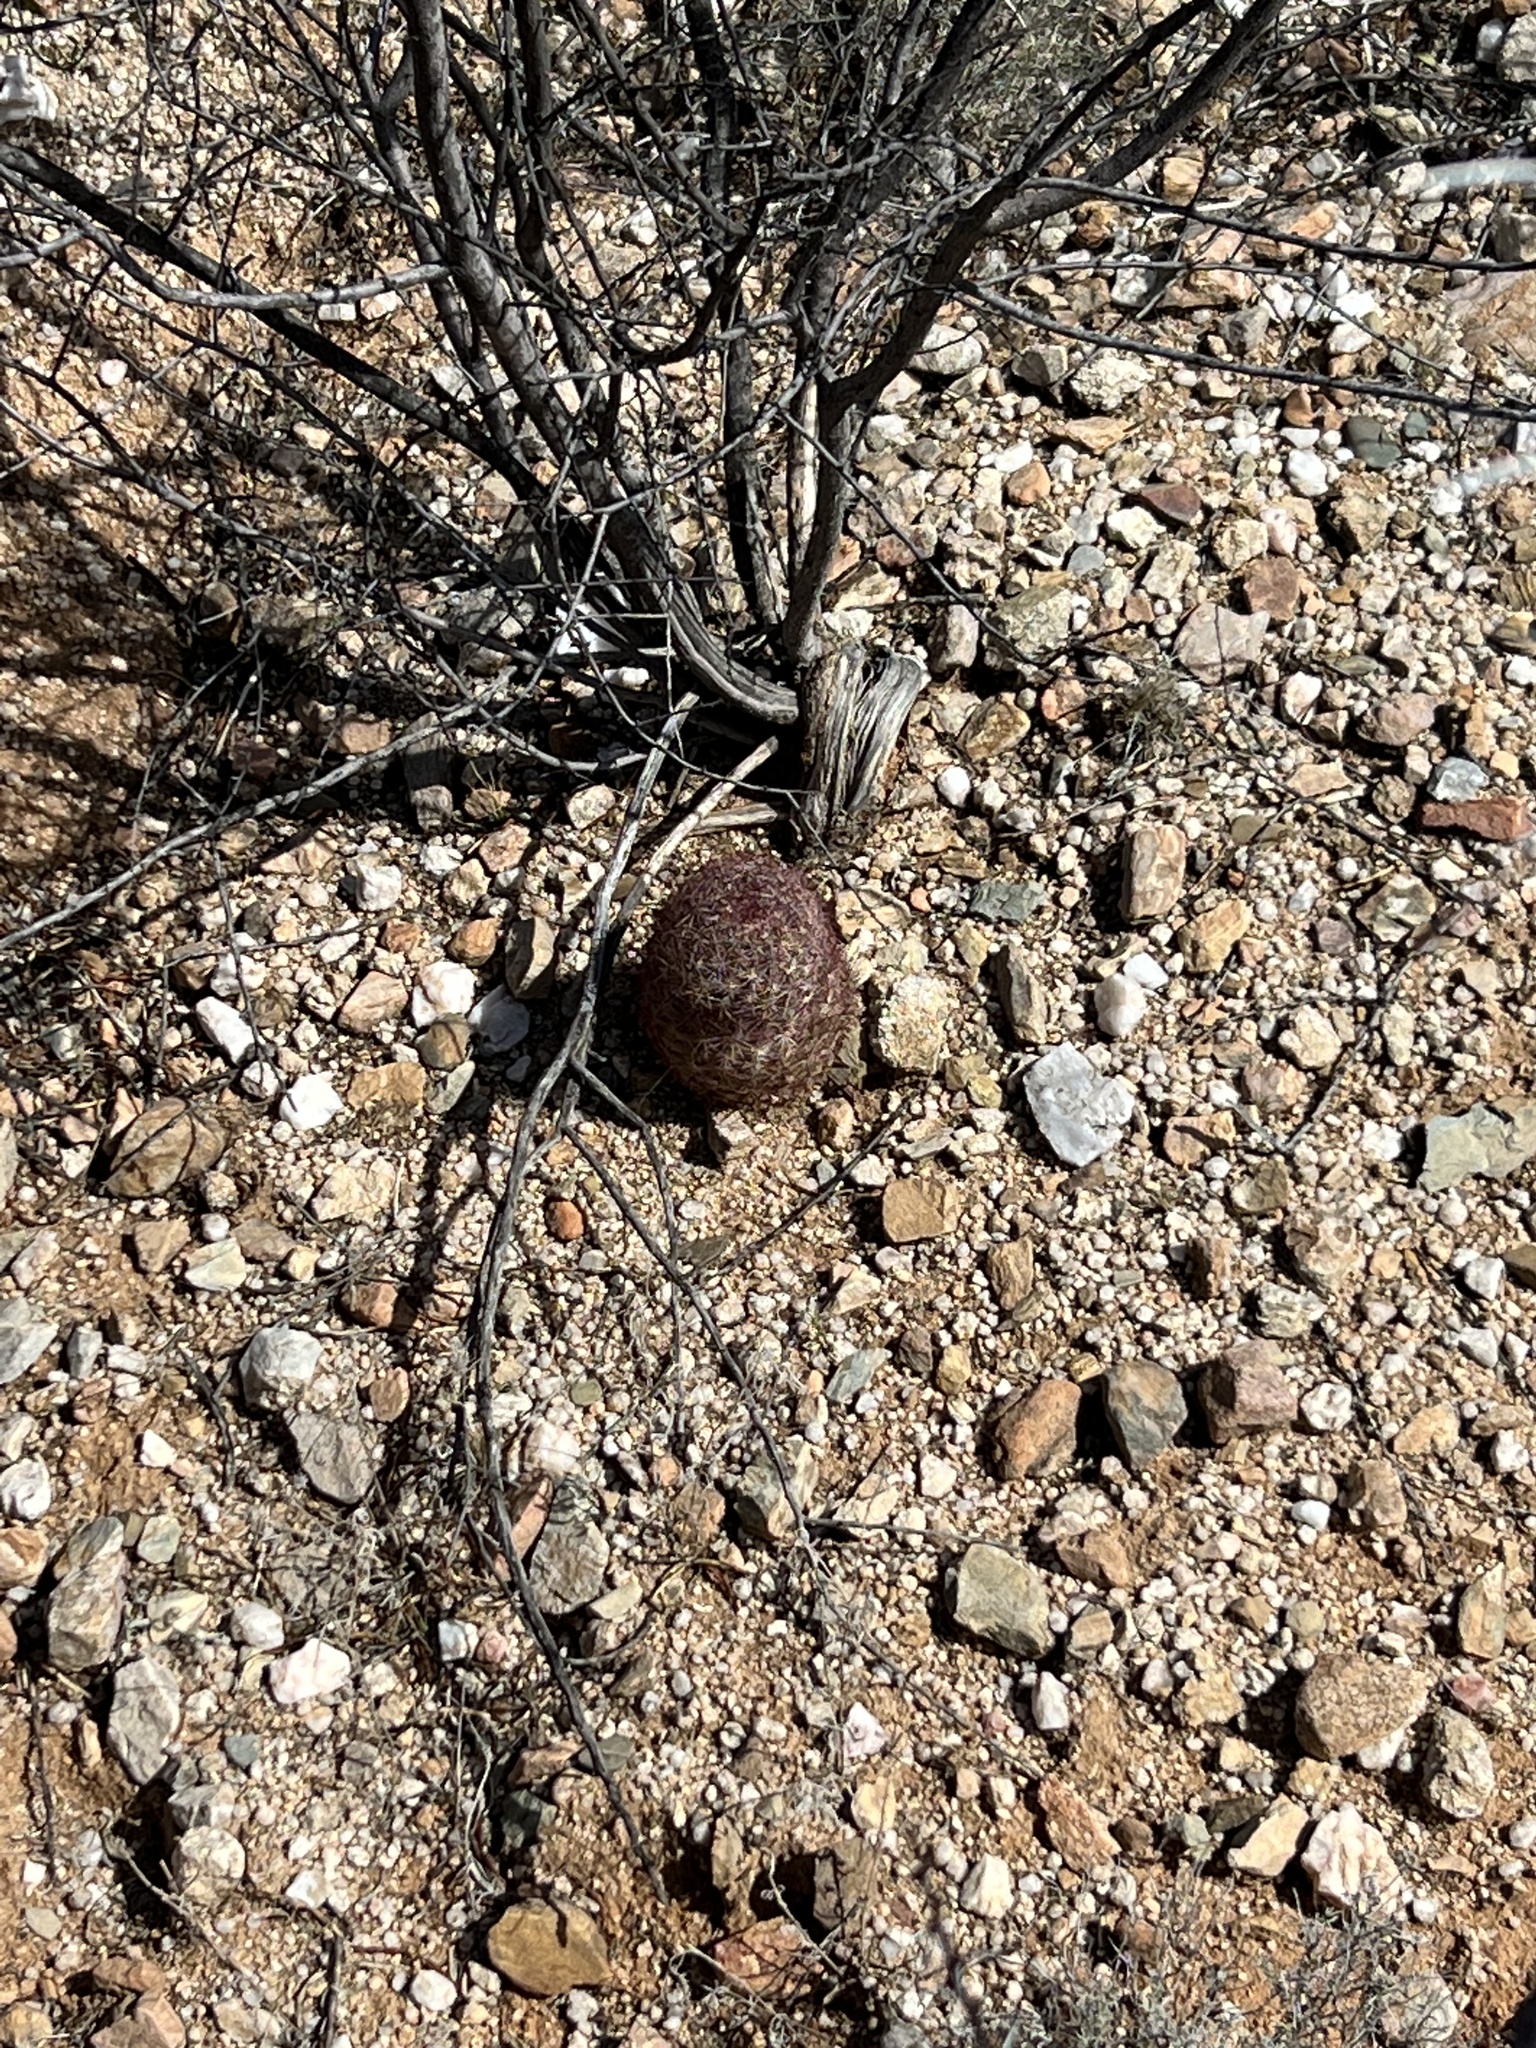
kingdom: Plantae
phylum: Tracheophyta
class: Magnoliopsida
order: Caryophyllales
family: Cactaceae
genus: Sclerocactus
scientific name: Sclerocactus johnsonii
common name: Eight-spine fishhook cactus
